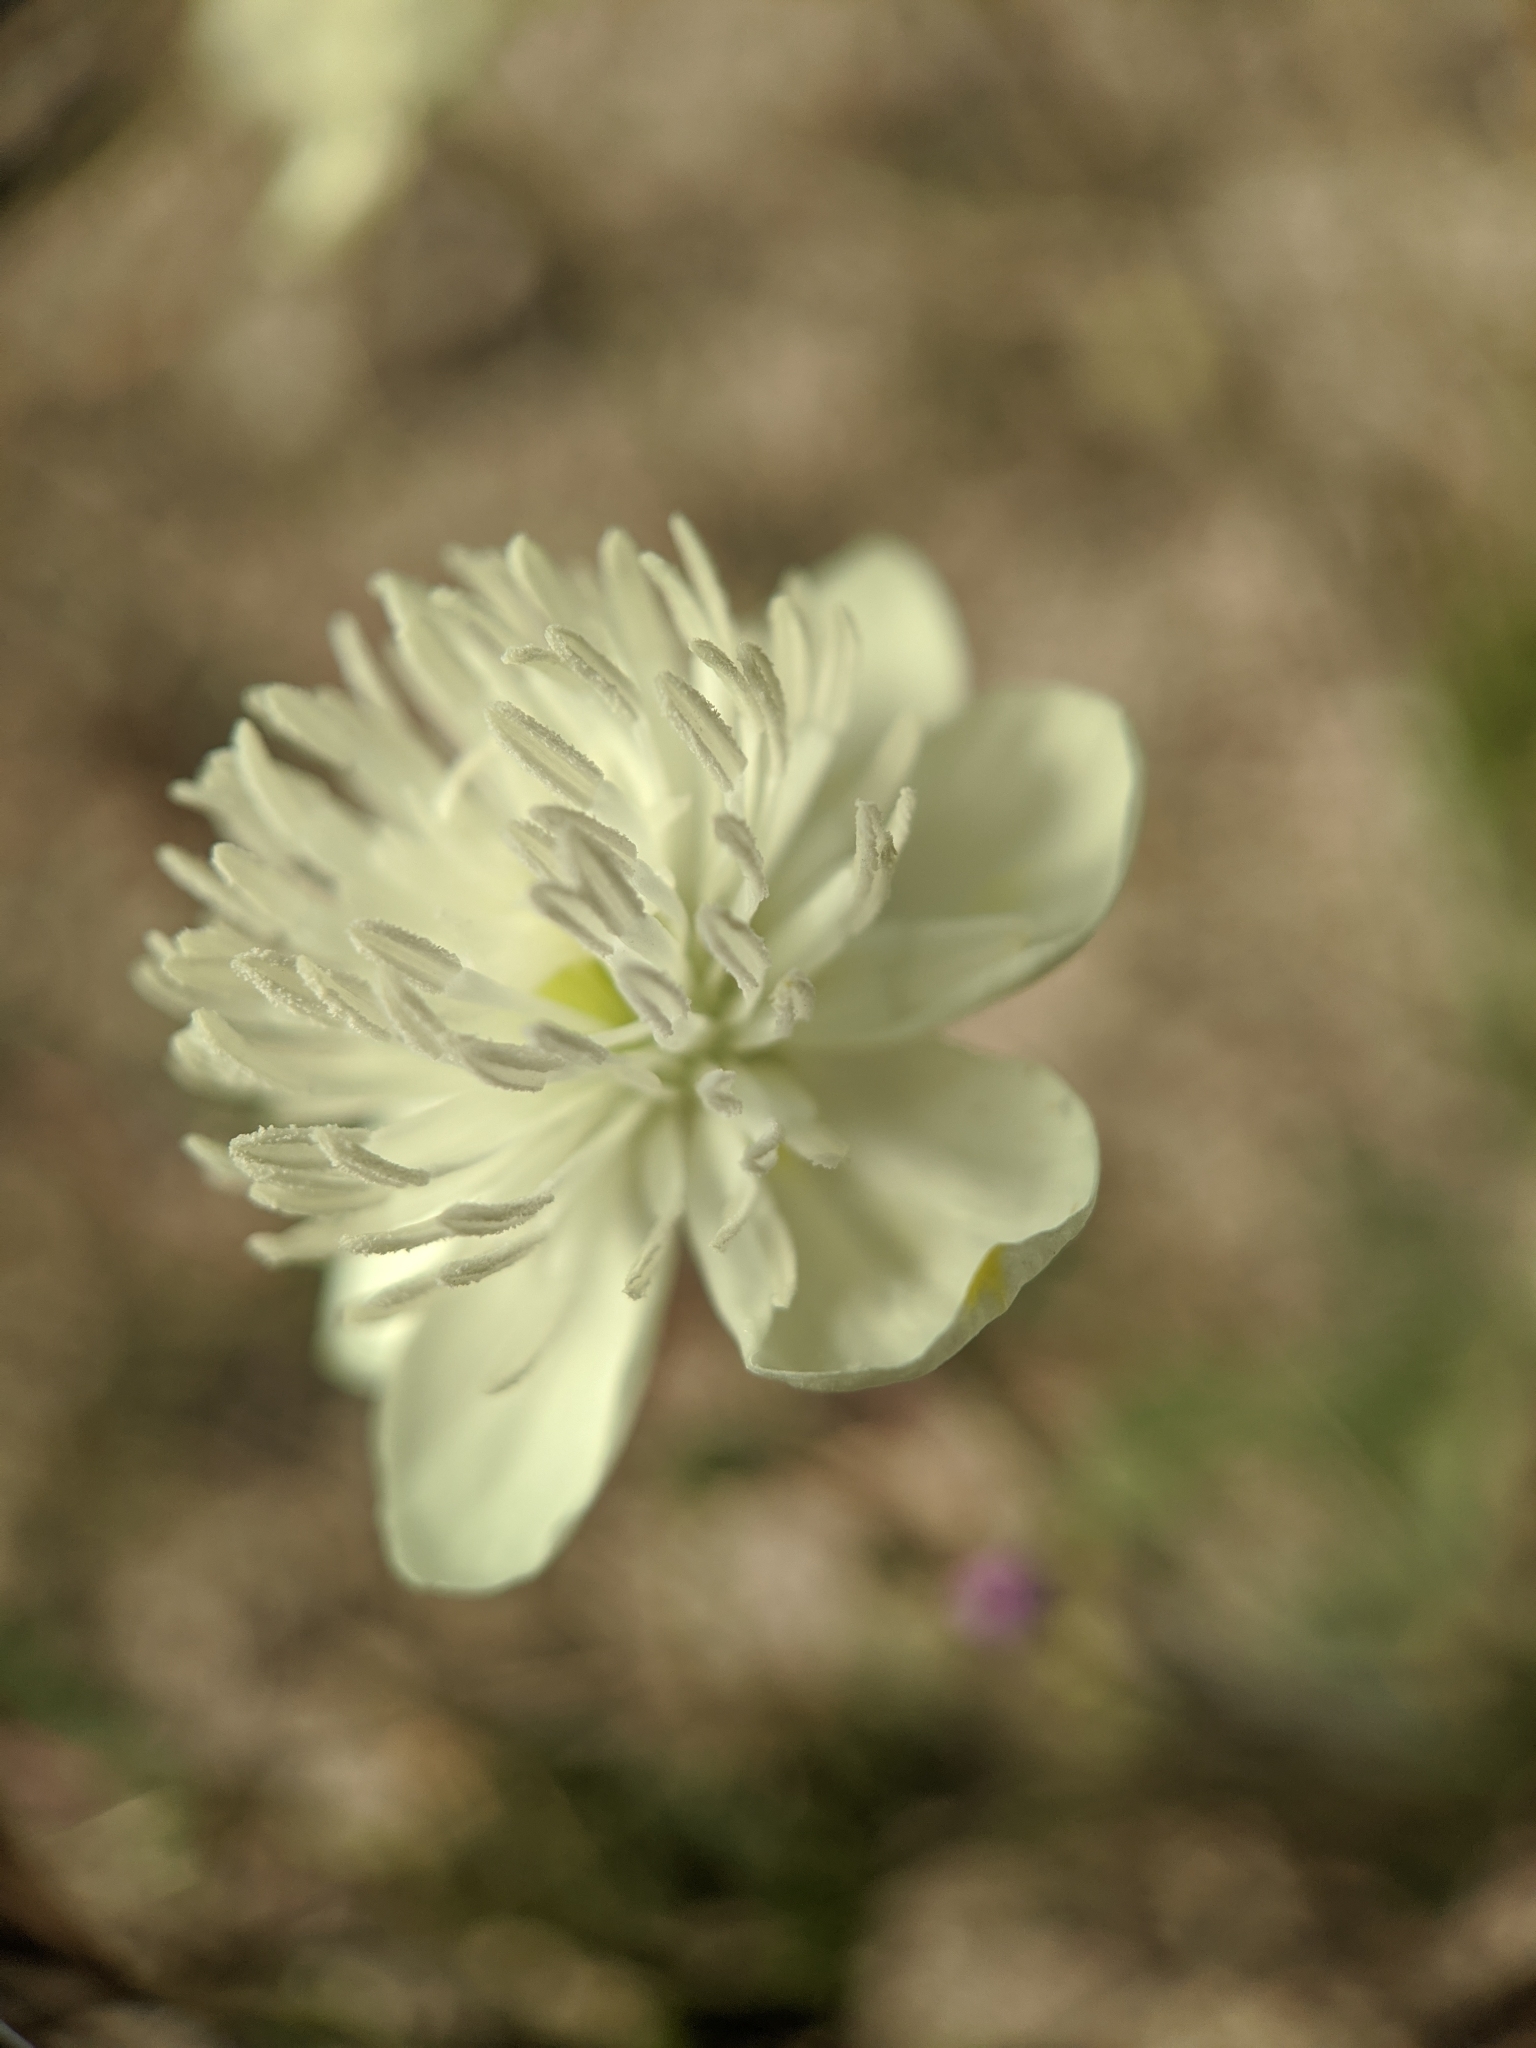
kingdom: Plantae
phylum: Tracheophyta
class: Magnoliopsida
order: Ranunculales
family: Papaveraceae
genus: Platystemon
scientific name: Platystemon californicus
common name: Cream-cups
